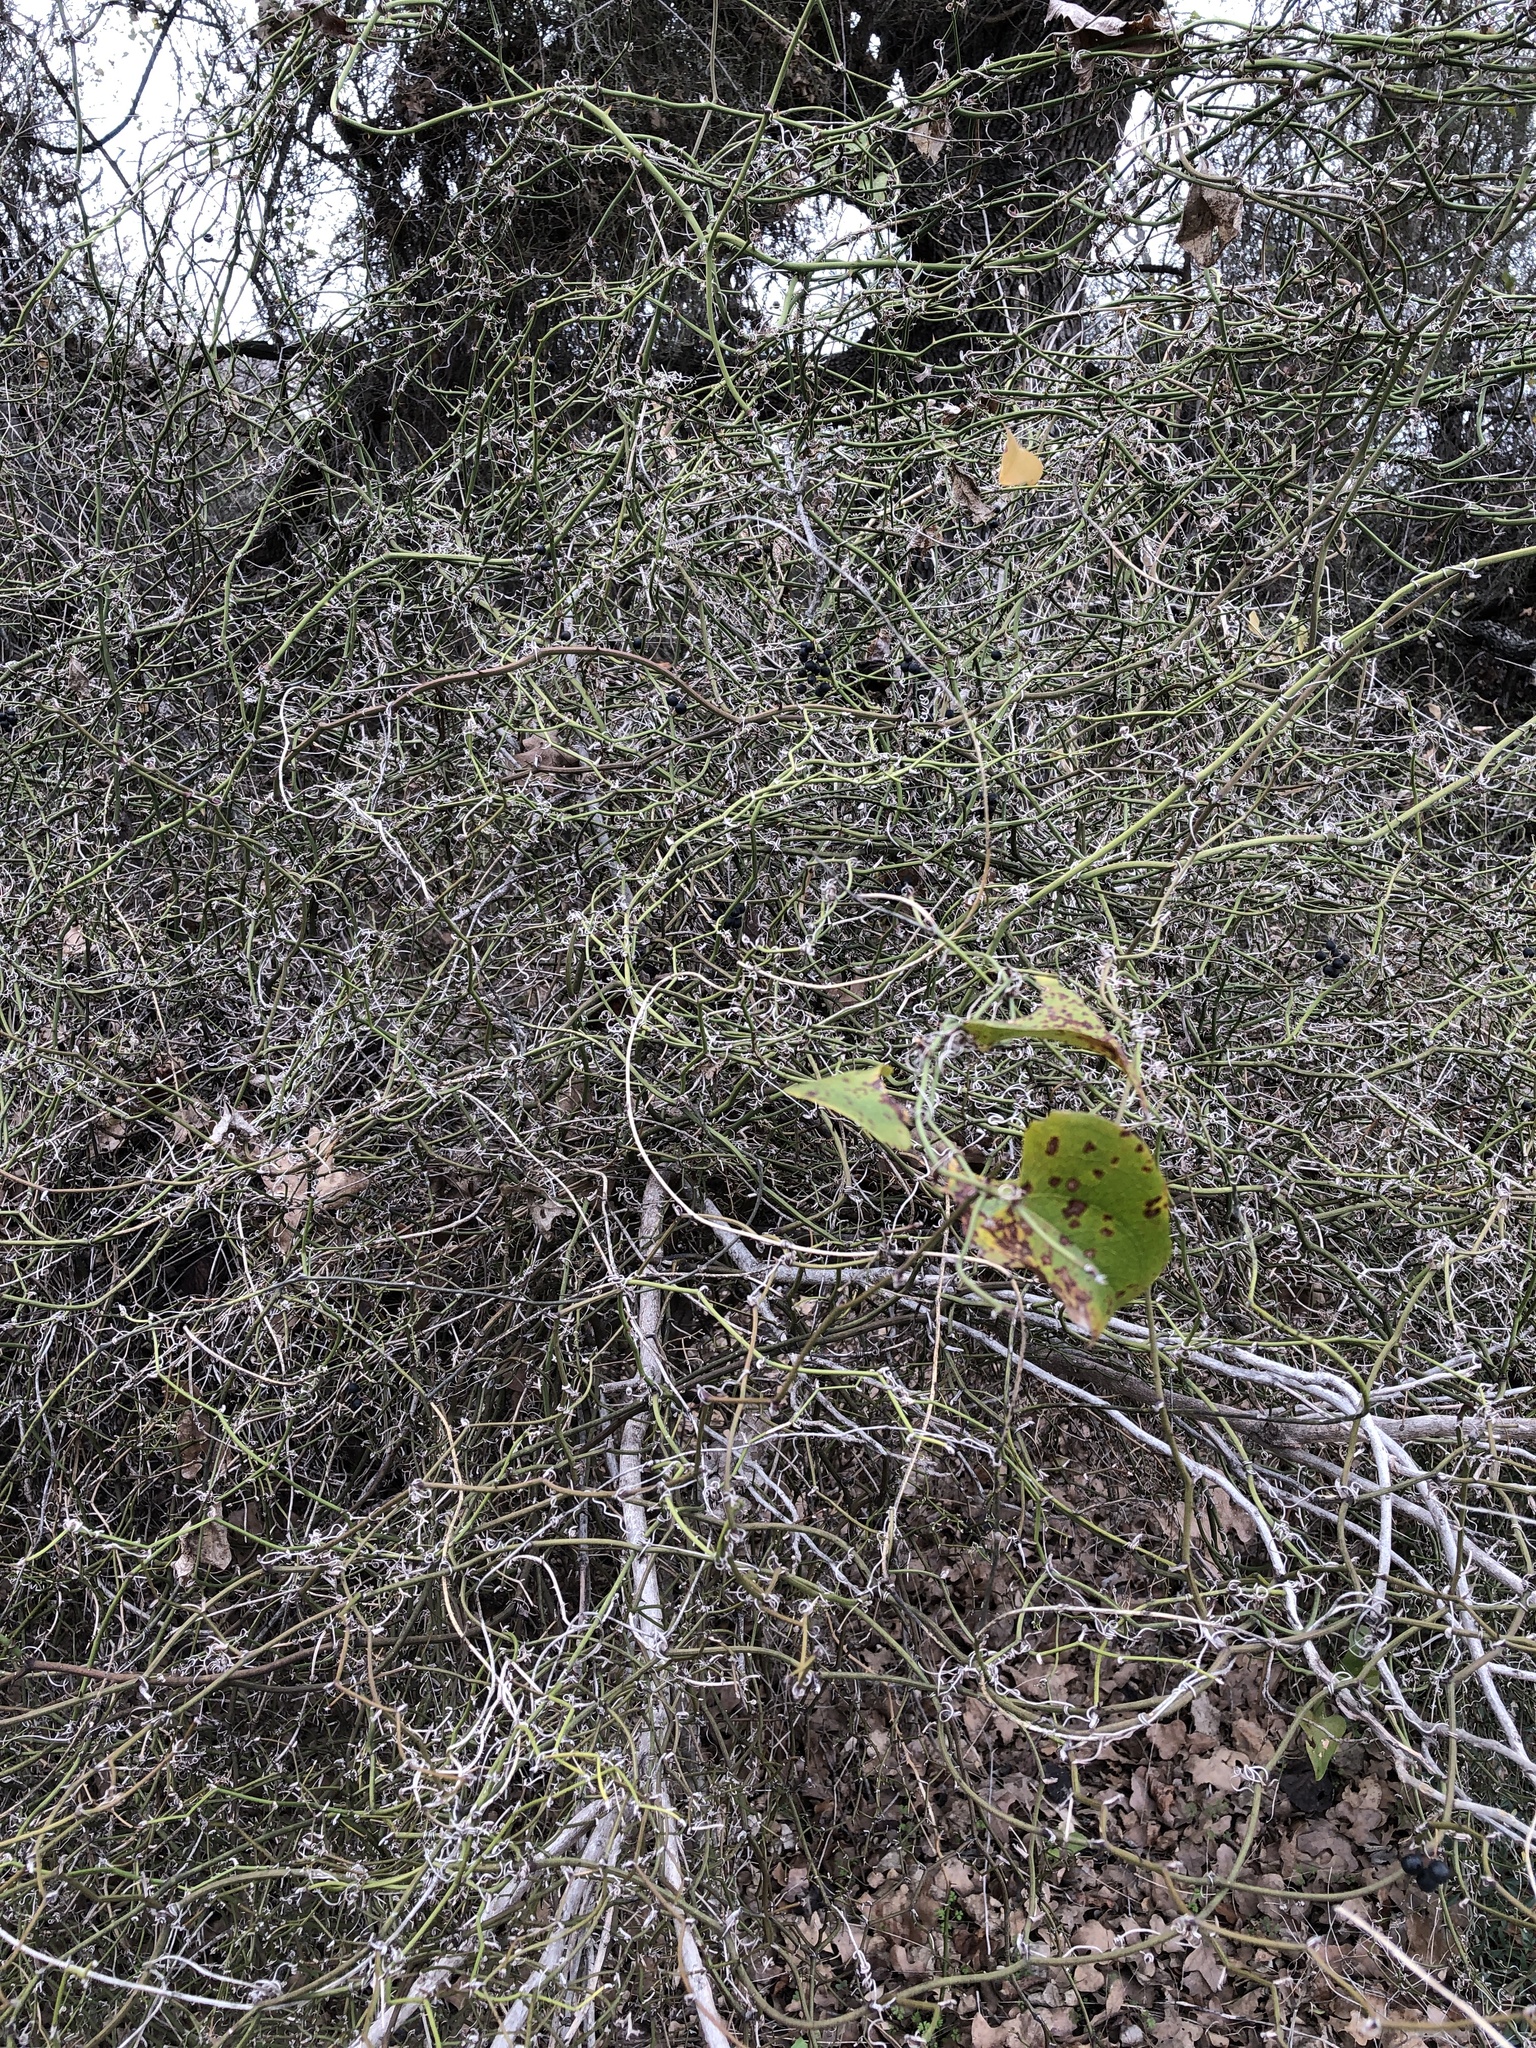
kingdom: Plantae
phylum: Tracheophyta
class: Liliopsida
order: Liliales
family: Smilacaceae
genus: Smilax
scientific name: Smilax bona-nox
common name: Catbrier
